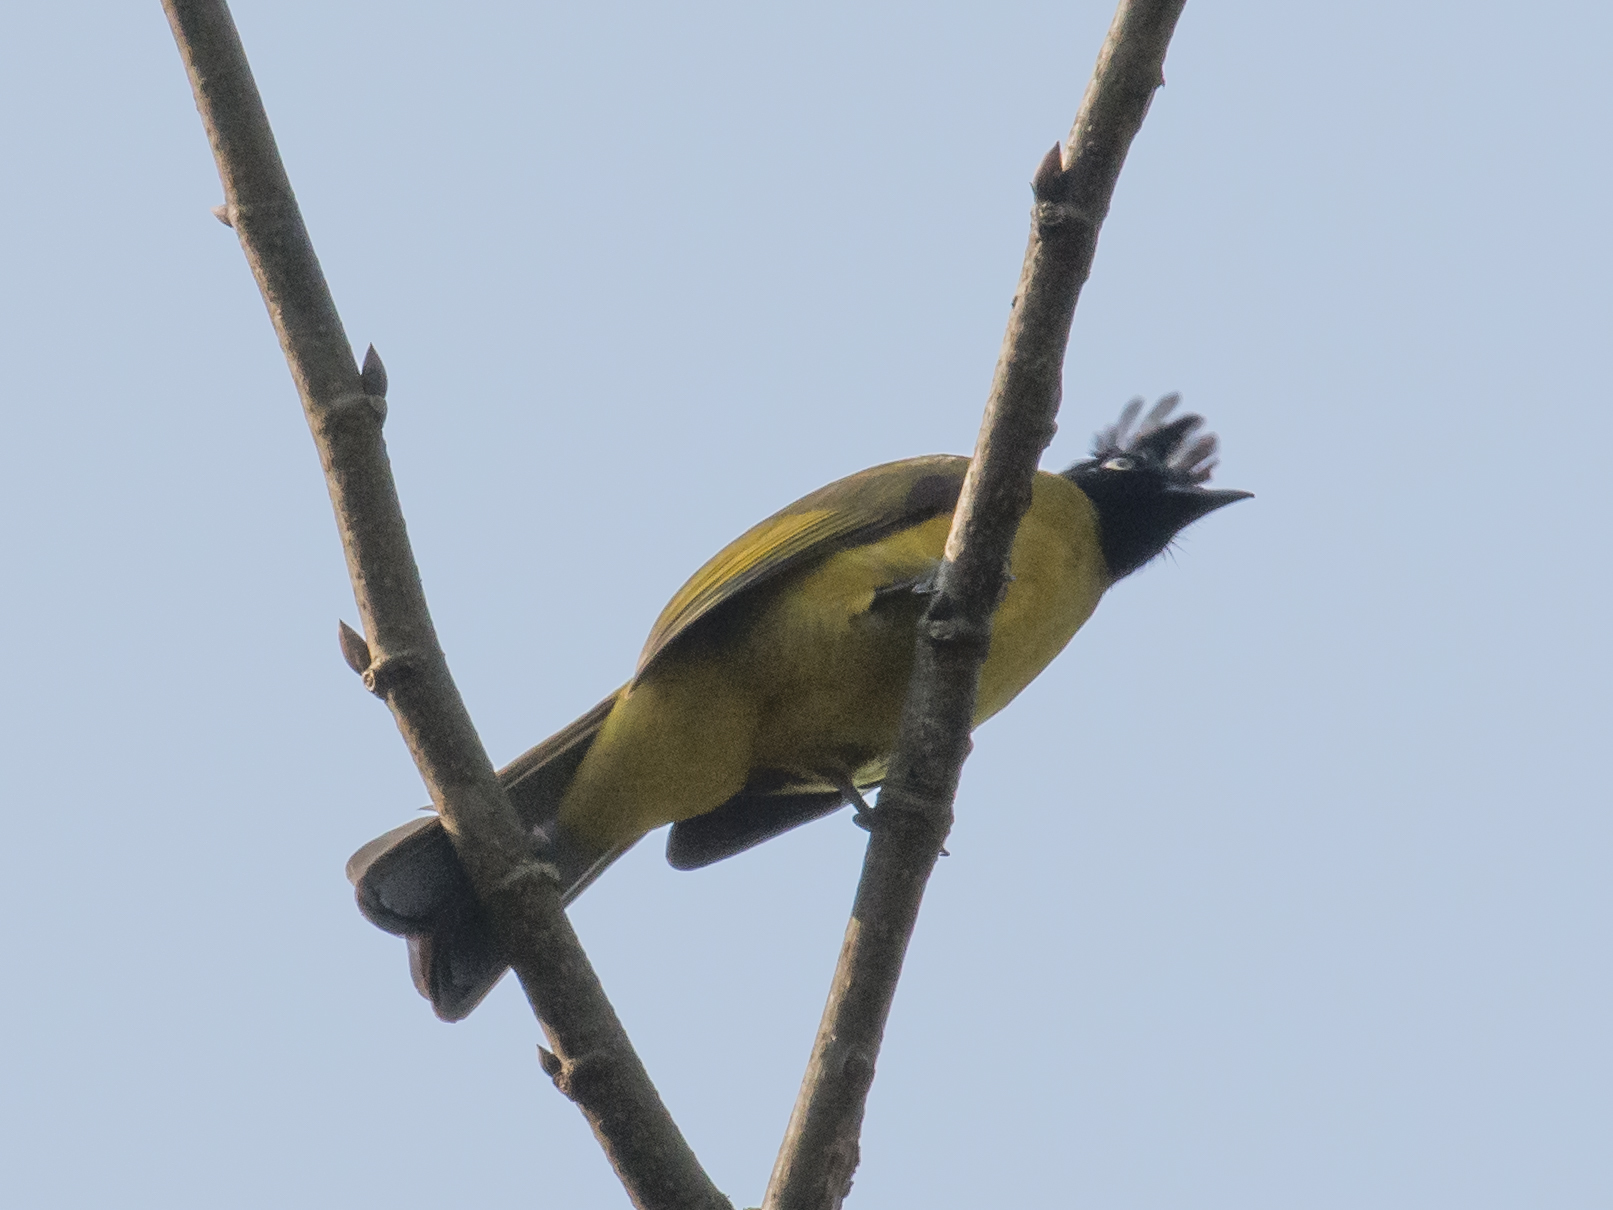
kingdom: Animalia
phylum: Chordata
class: Aves
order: Passeriformes
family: Pycnonotidae
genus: Pycnonotus
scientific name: Pycnonotus flaviventris
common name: Black-crested bulbul
